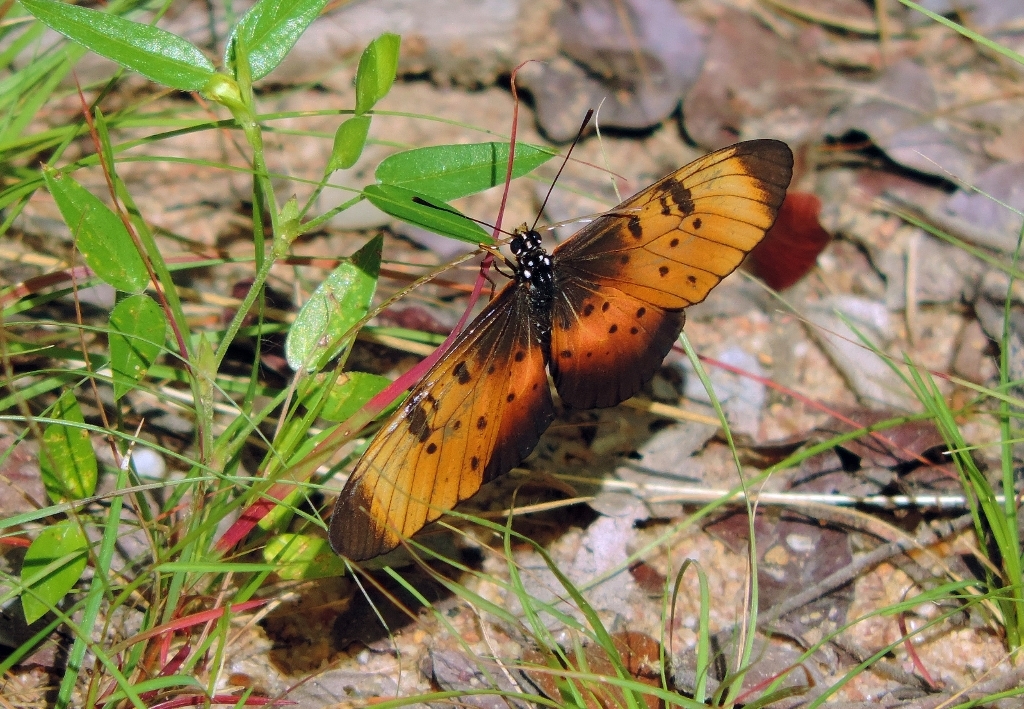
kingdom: Animalia
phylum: Arthropoda
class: Insecta
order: Lepidoptera
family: Nymphalidae
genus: Stephenia
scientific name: Stephenia
